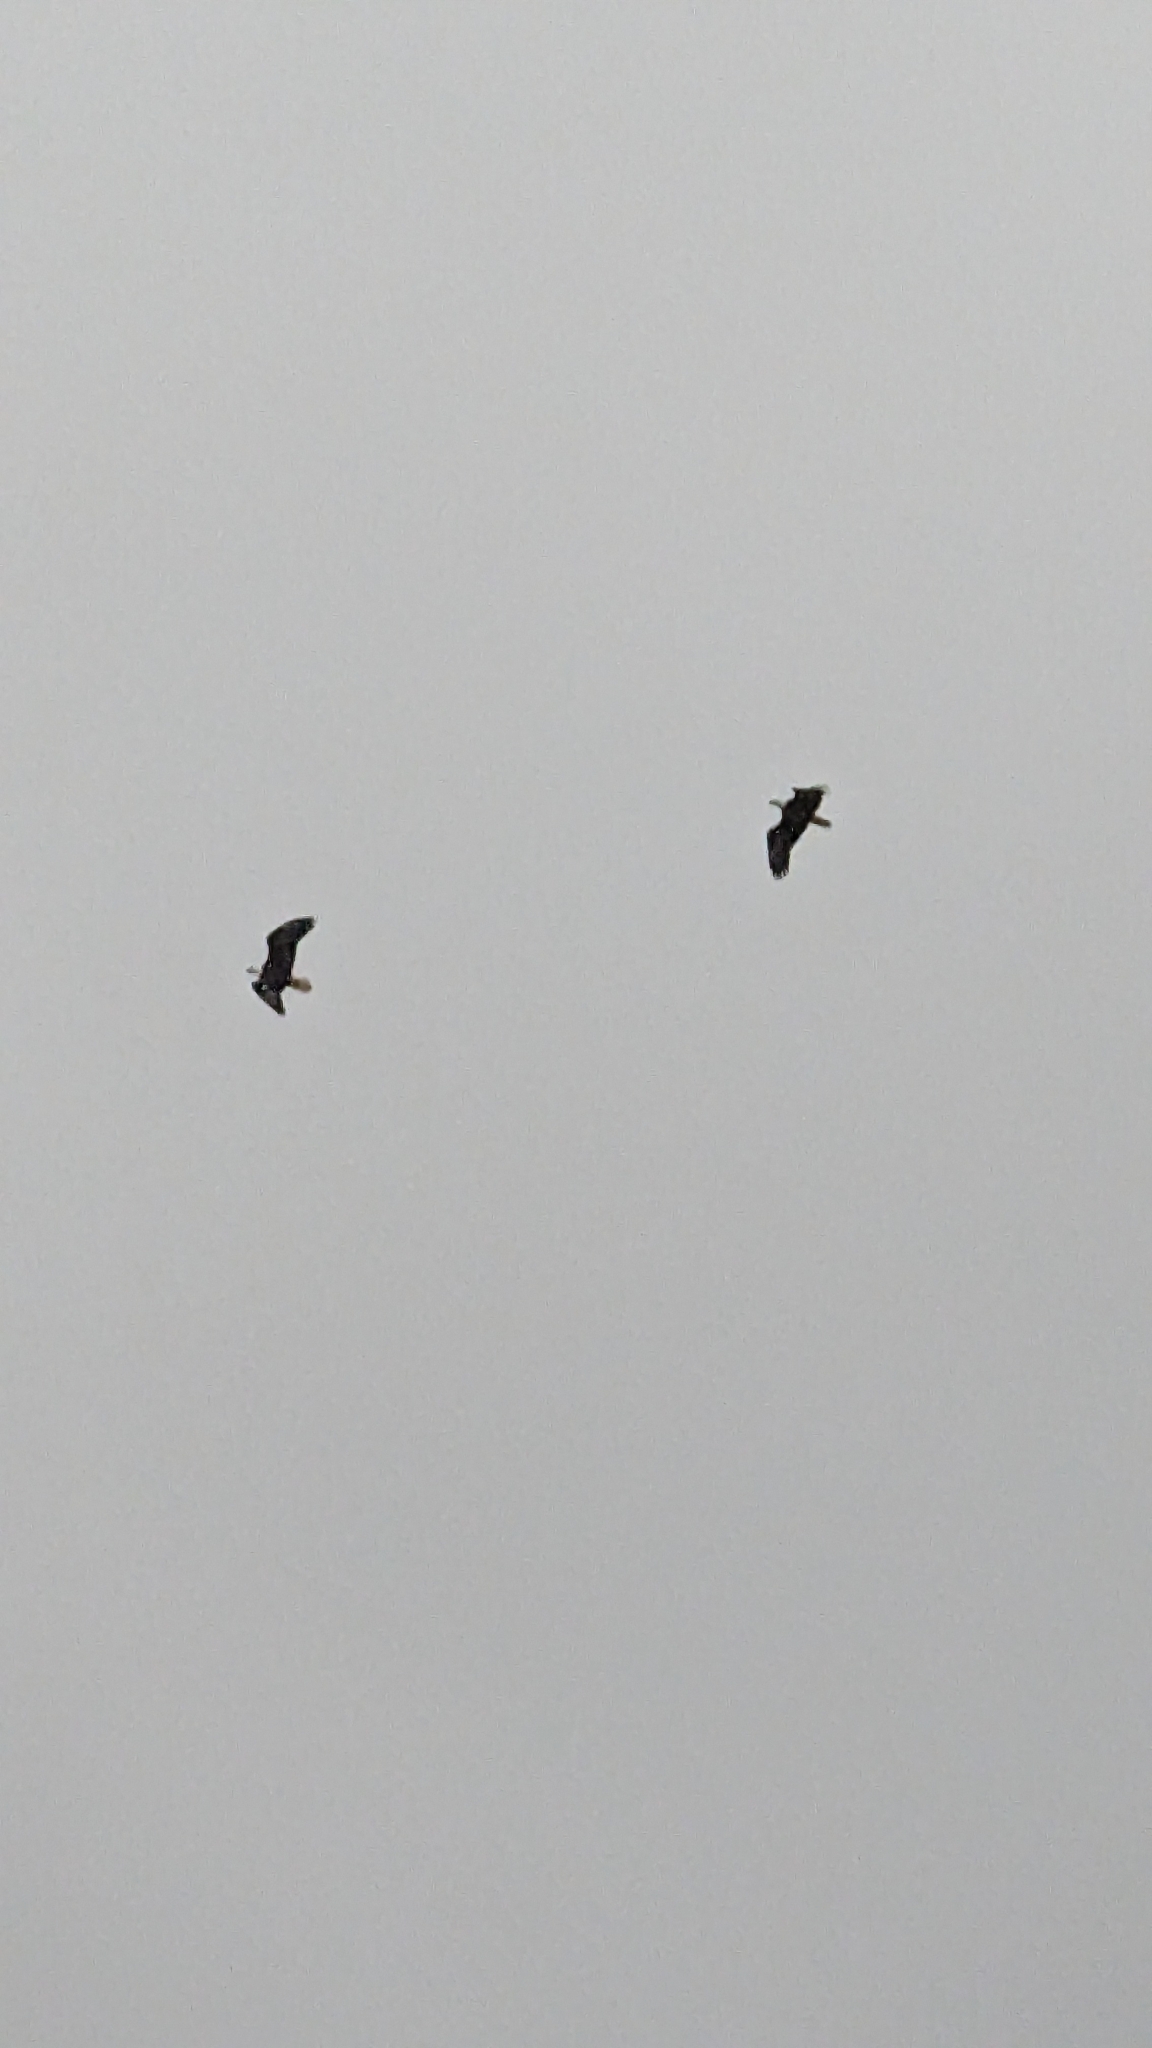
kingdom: Animalia
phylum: Chordata
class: Aves
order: Accipitriformes
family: Accipitridae
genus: Haliaeetus
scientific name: Haliaeetus leucocephalus
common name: Bald eagle
